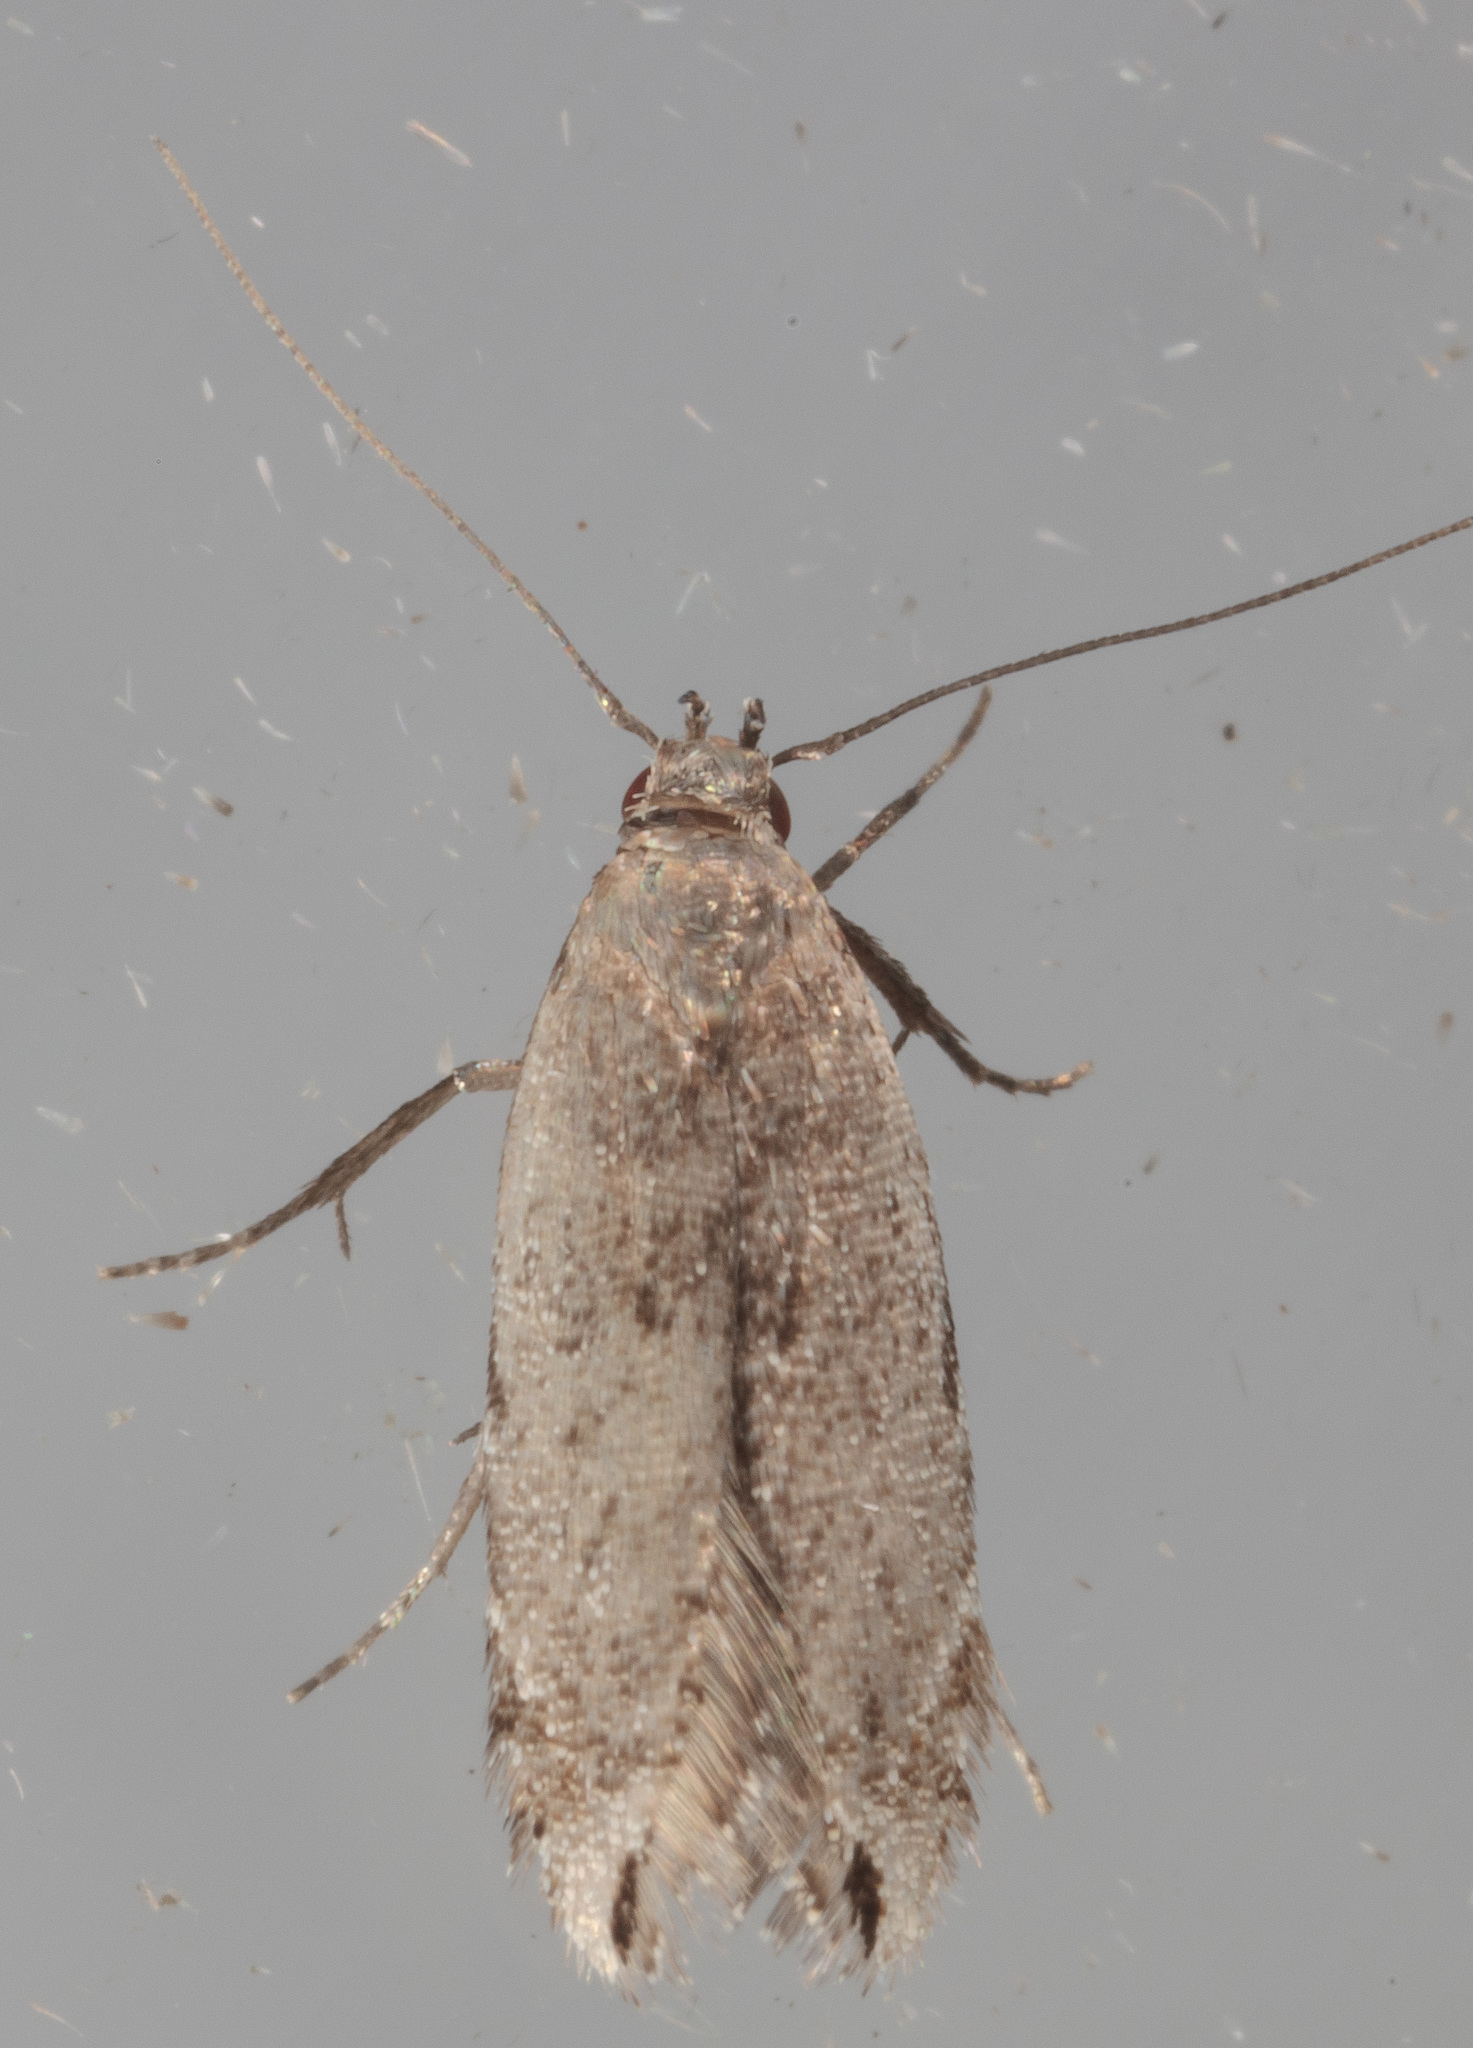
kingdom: Animalia
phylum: Arthropoda
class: Insecta
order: Lepidoptera
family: Gelechiidae
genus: Battaristis
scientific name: Battaristis concinnusella
